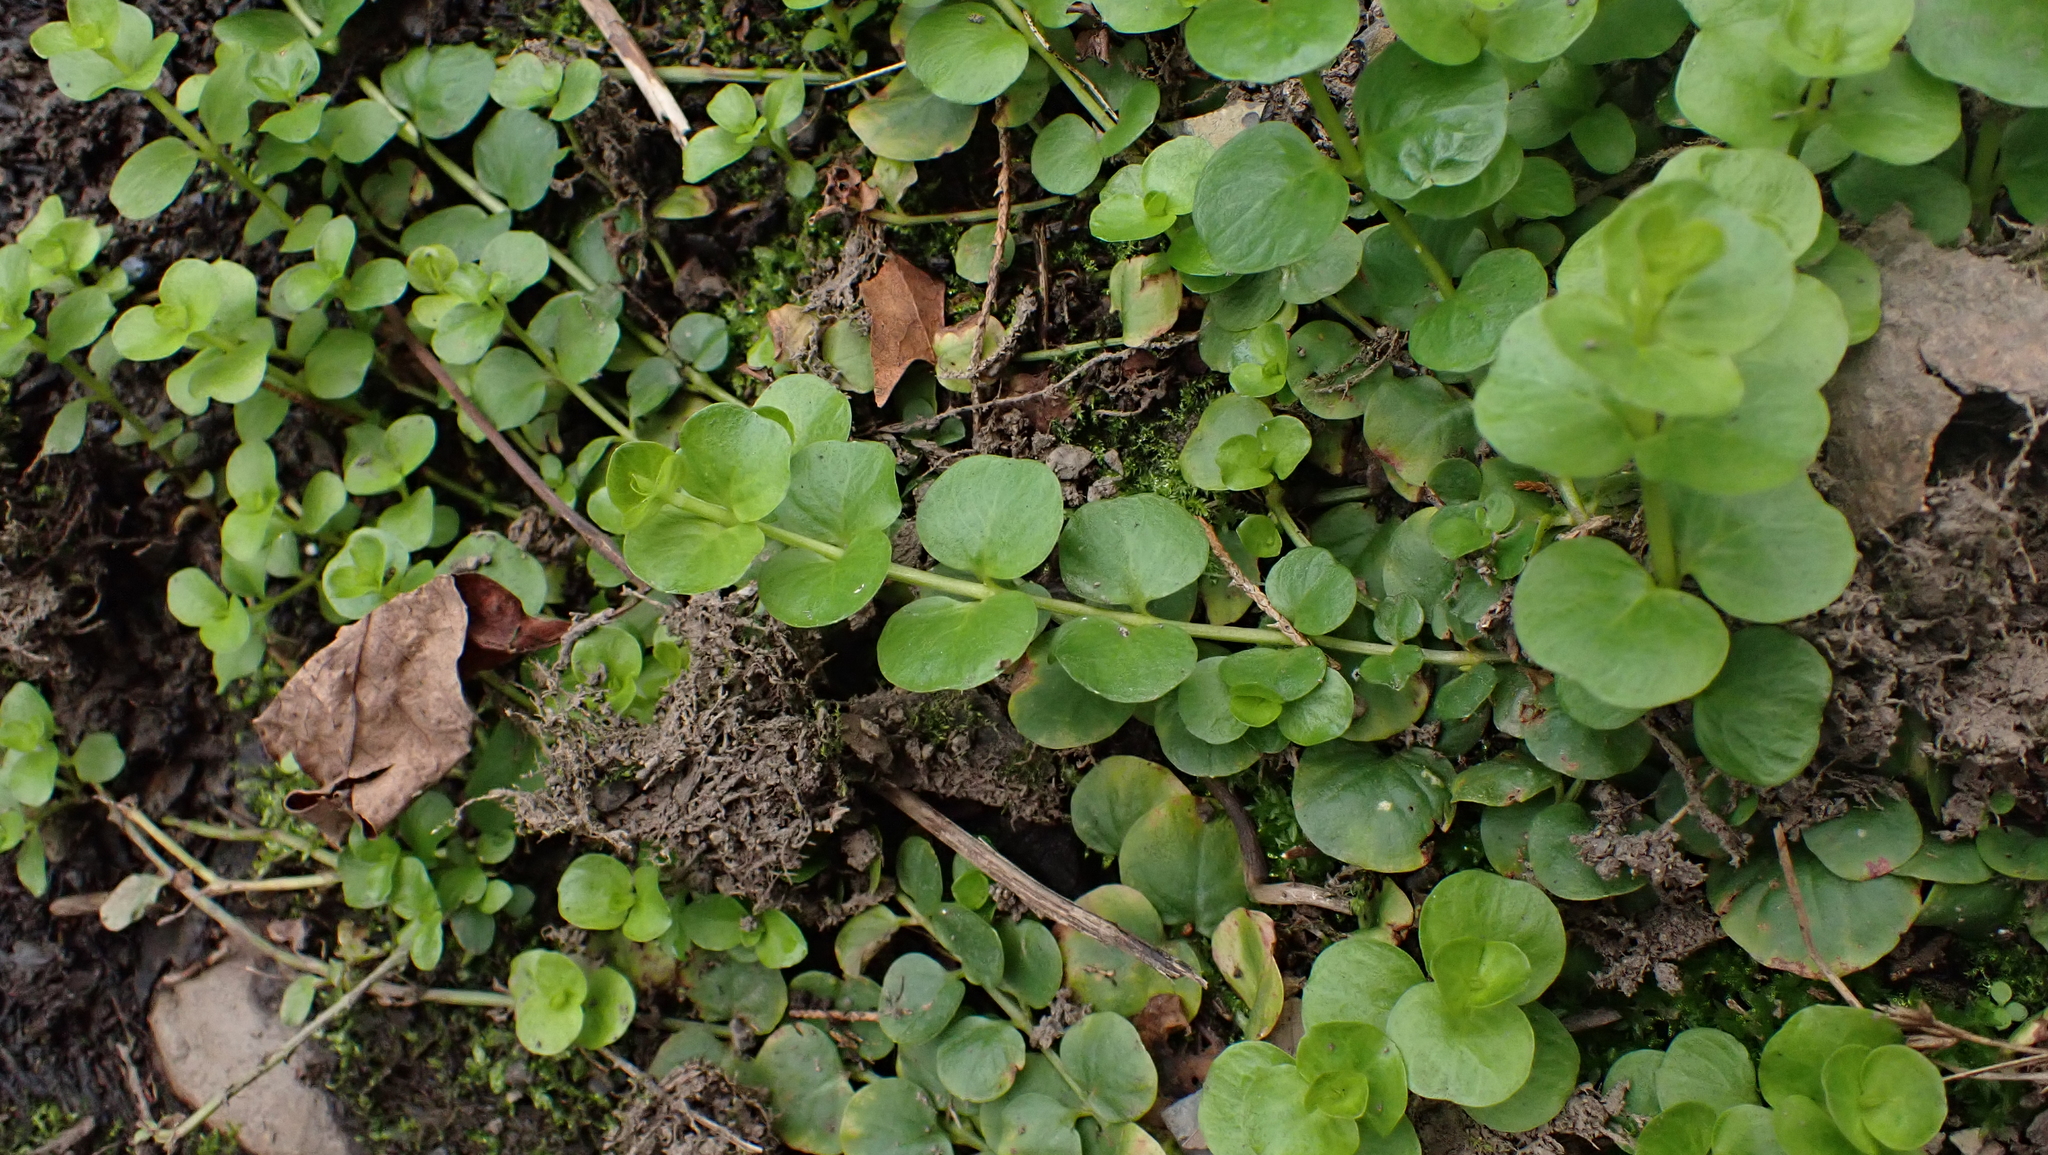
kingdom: Plantae
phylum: Tracheophyta
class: Magnoliopsida
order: Ericales
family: Primulaceae
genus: Lysimachia
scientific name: Lysimachia nummularia
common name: Moneywort
